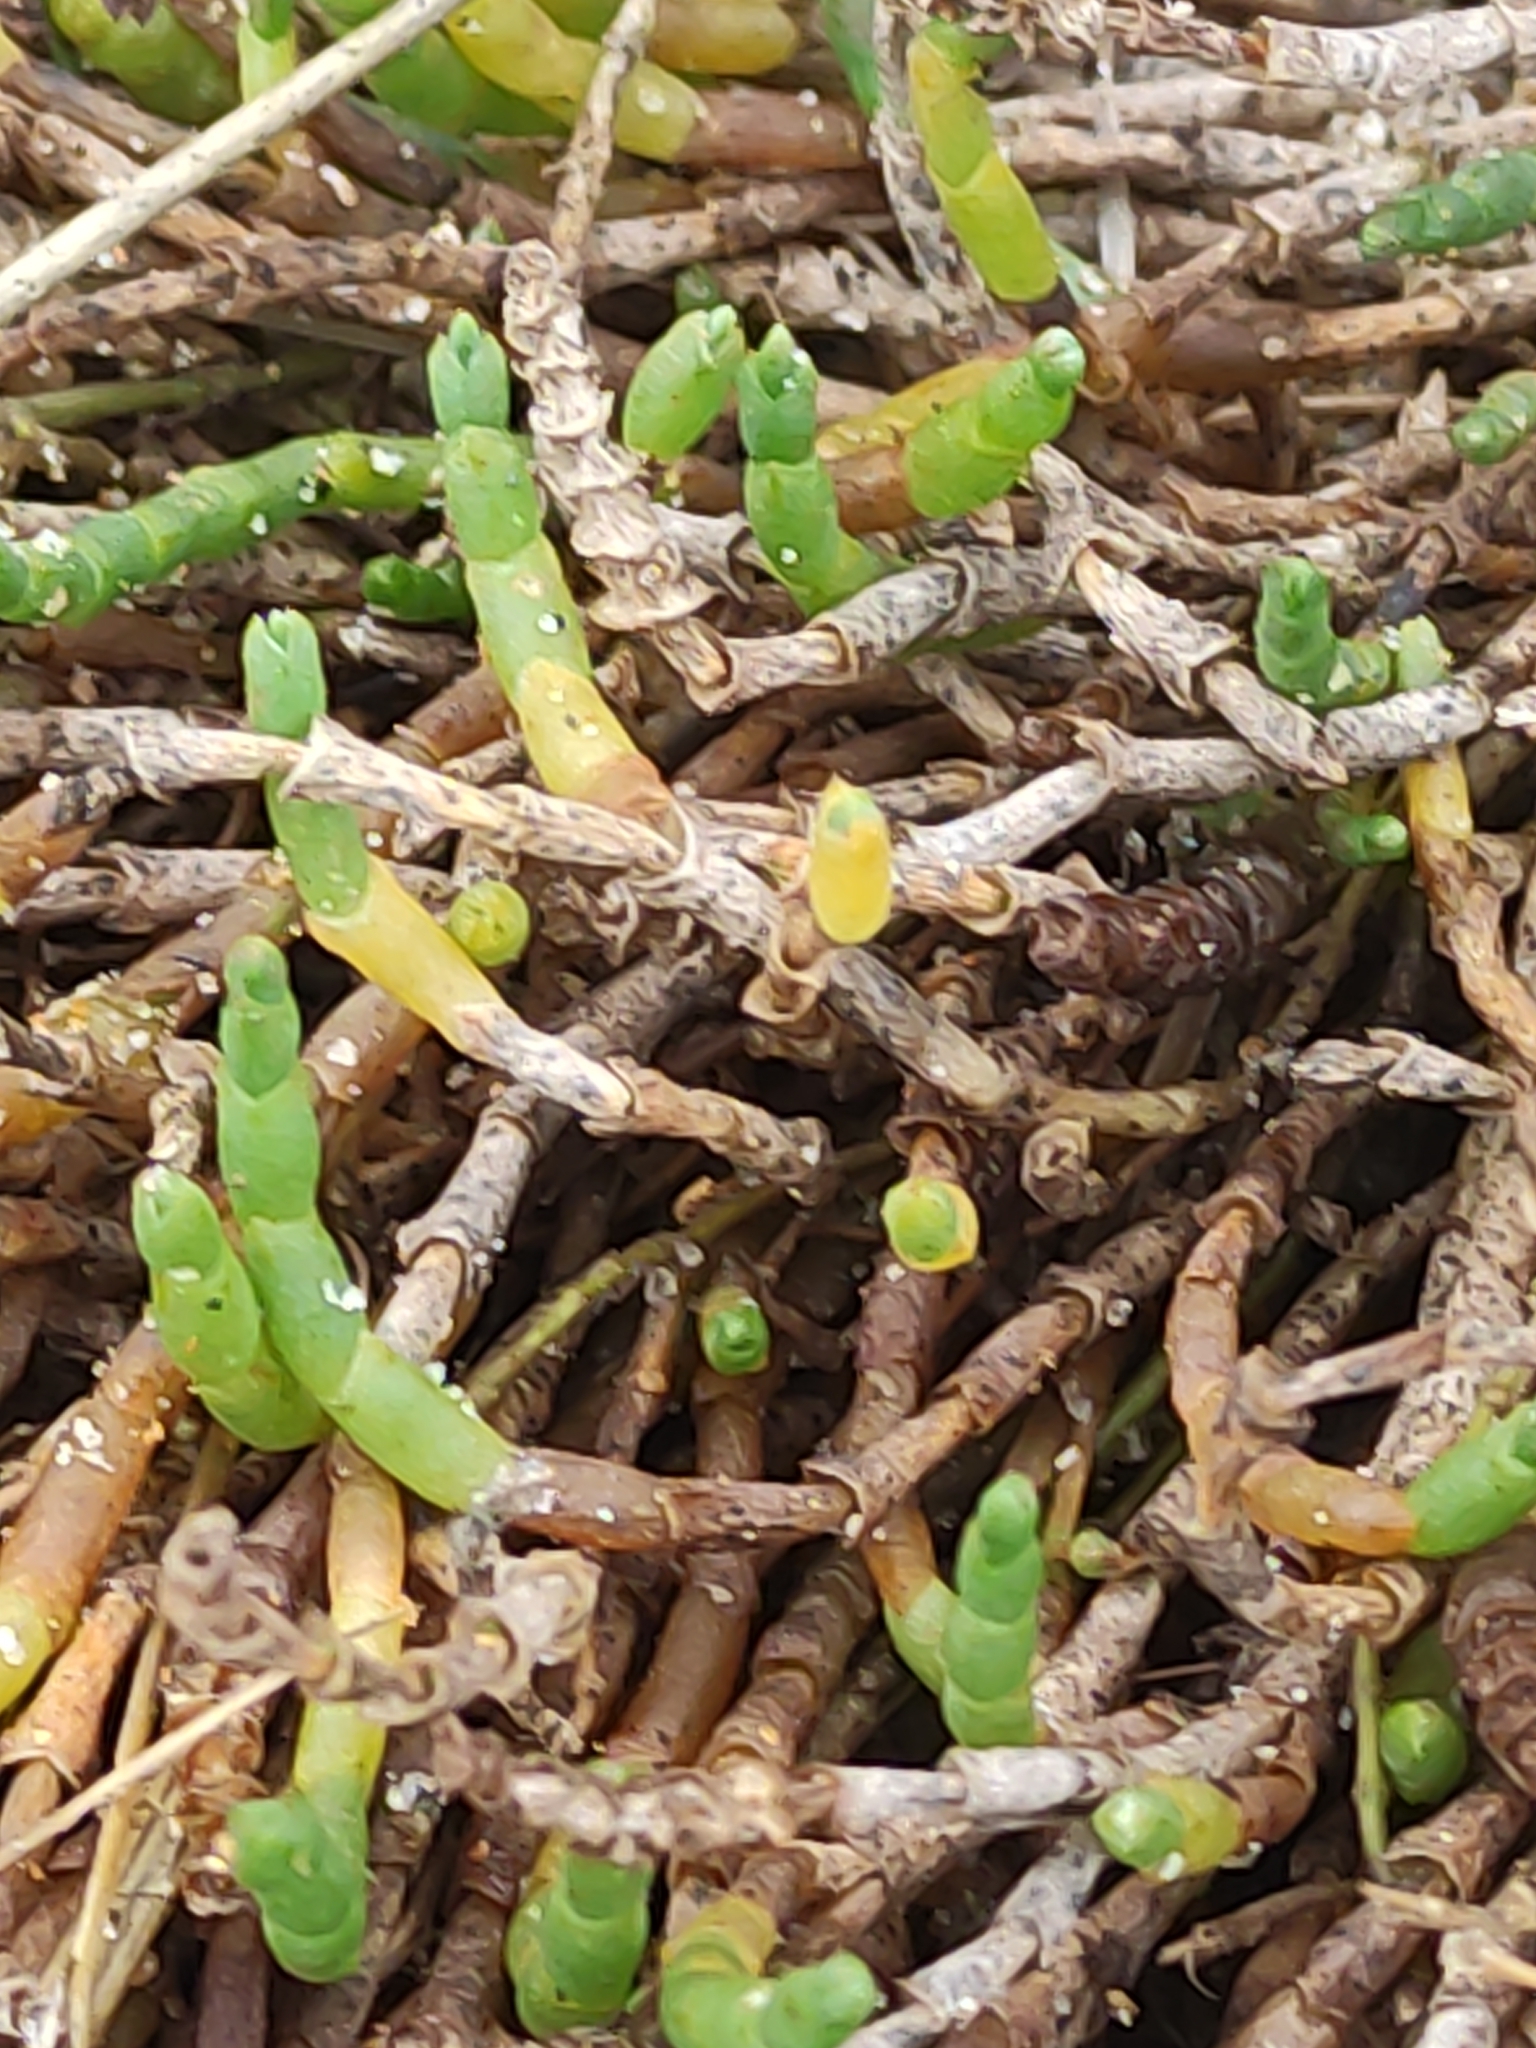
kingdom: Plantae
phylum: Tracheophyta
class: Magnoliopsida
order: Caryophyllales
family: Amaranthaceae
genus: Salicornia
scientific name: Salicornia quinqueflora
